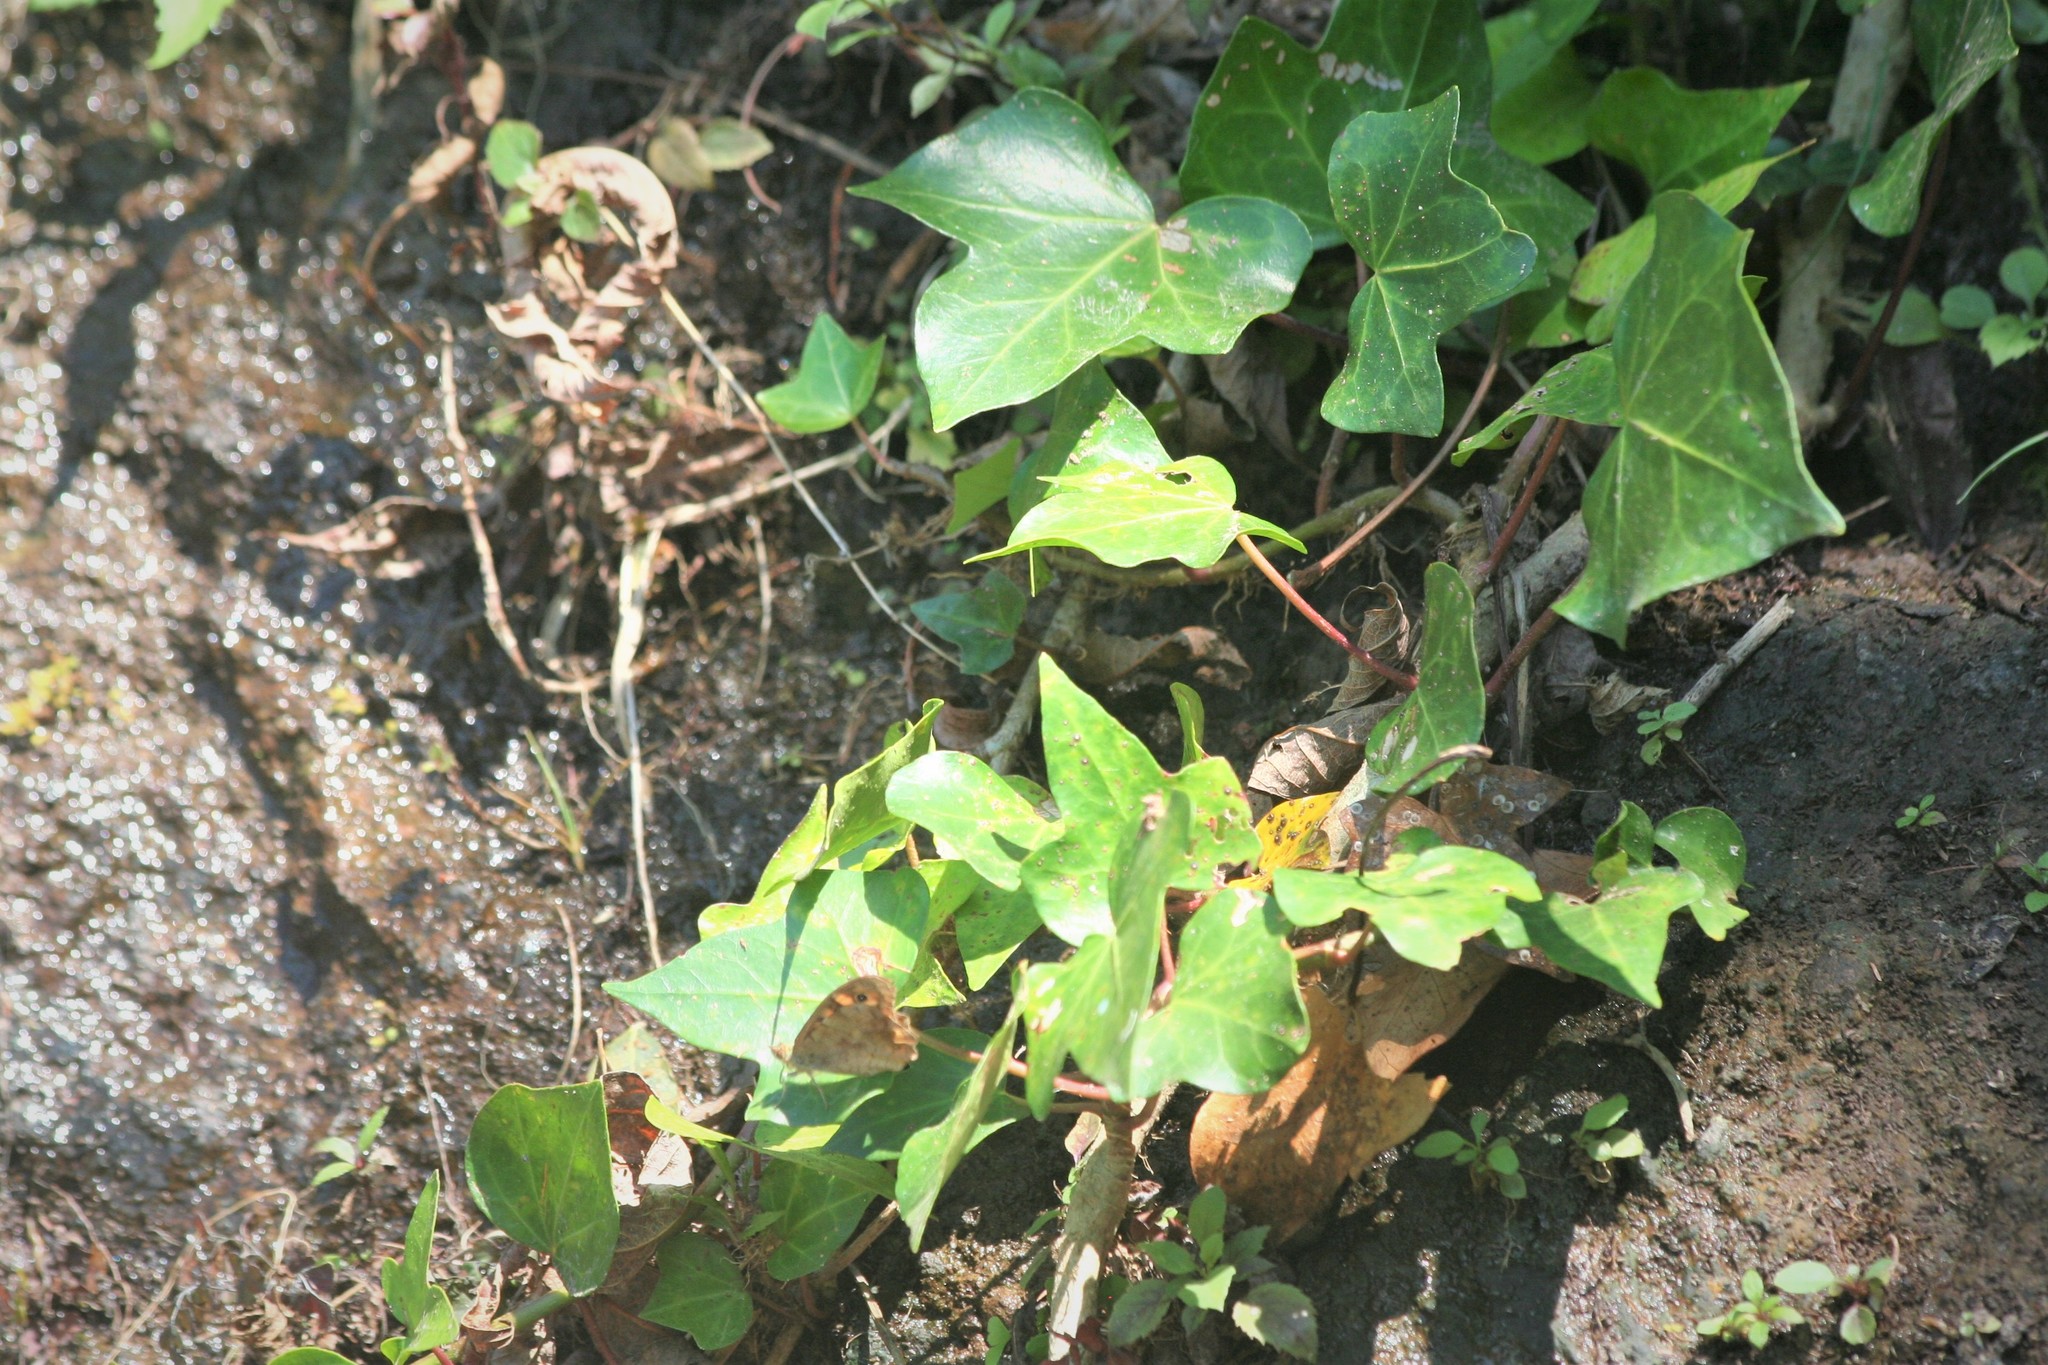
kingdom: Plantae
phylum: Tracheophyta
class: Magnoliopsida
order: Apiales
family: Araliaceae
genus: Hedera
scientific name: Hedera maderensis
